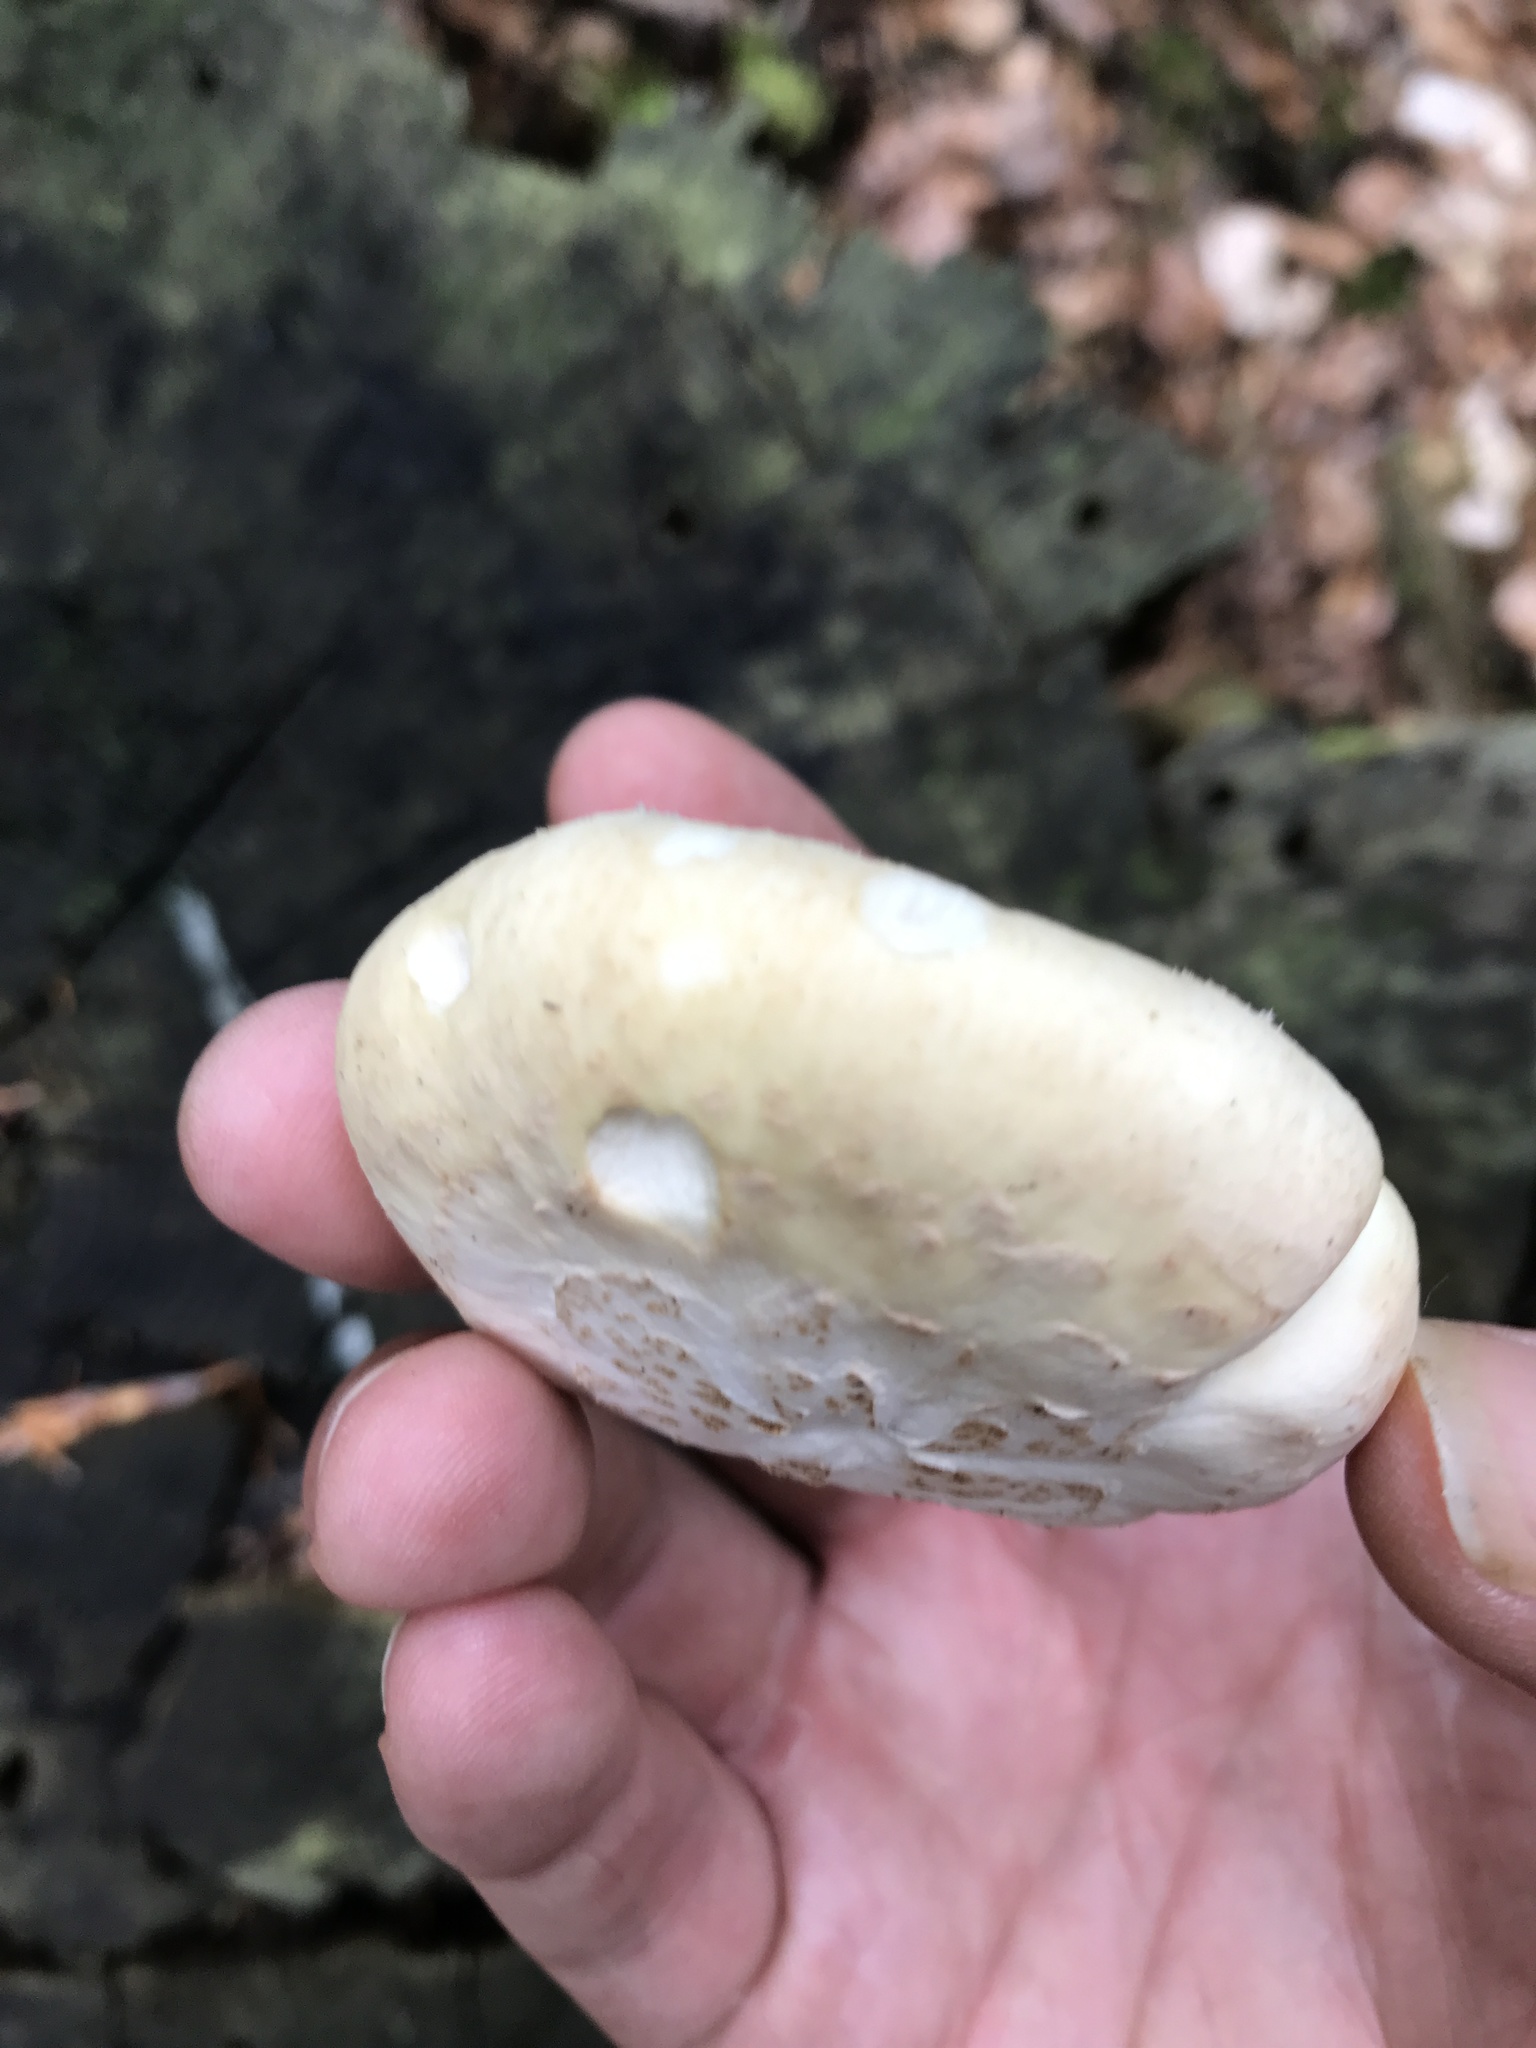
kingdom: Fungi
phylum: Basidiomycota
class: Agaricomycetes
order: Gloeophyllales
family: Gloeophyllaceae
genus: Neolentinus
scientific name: Neolentinus lepideus
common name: Scaly sawgill
